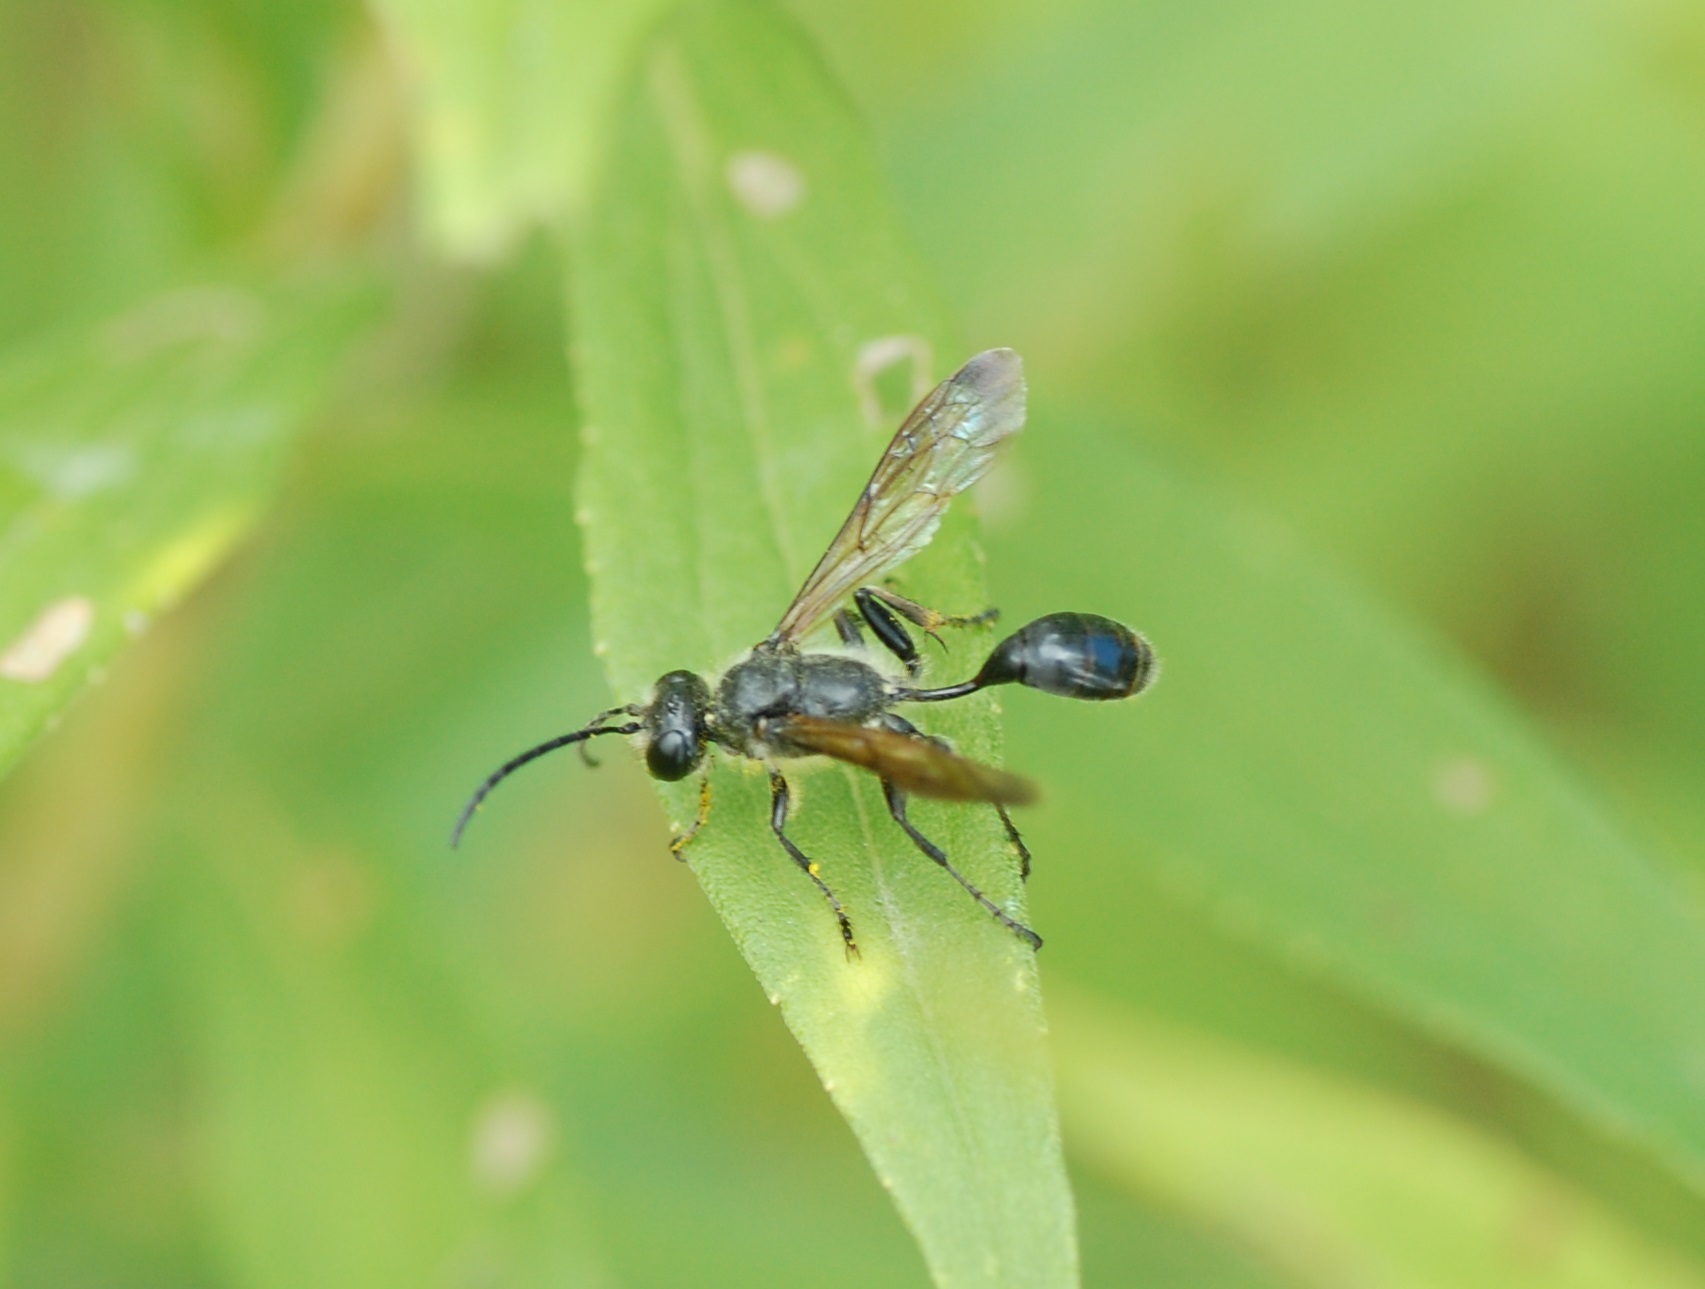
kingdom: Animalia
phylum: Arthropoda
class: Insecta
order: Hymenoptera
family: Sphecidae
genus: Isodontia
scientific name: Isodontia mexicana
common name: Mud dauber
